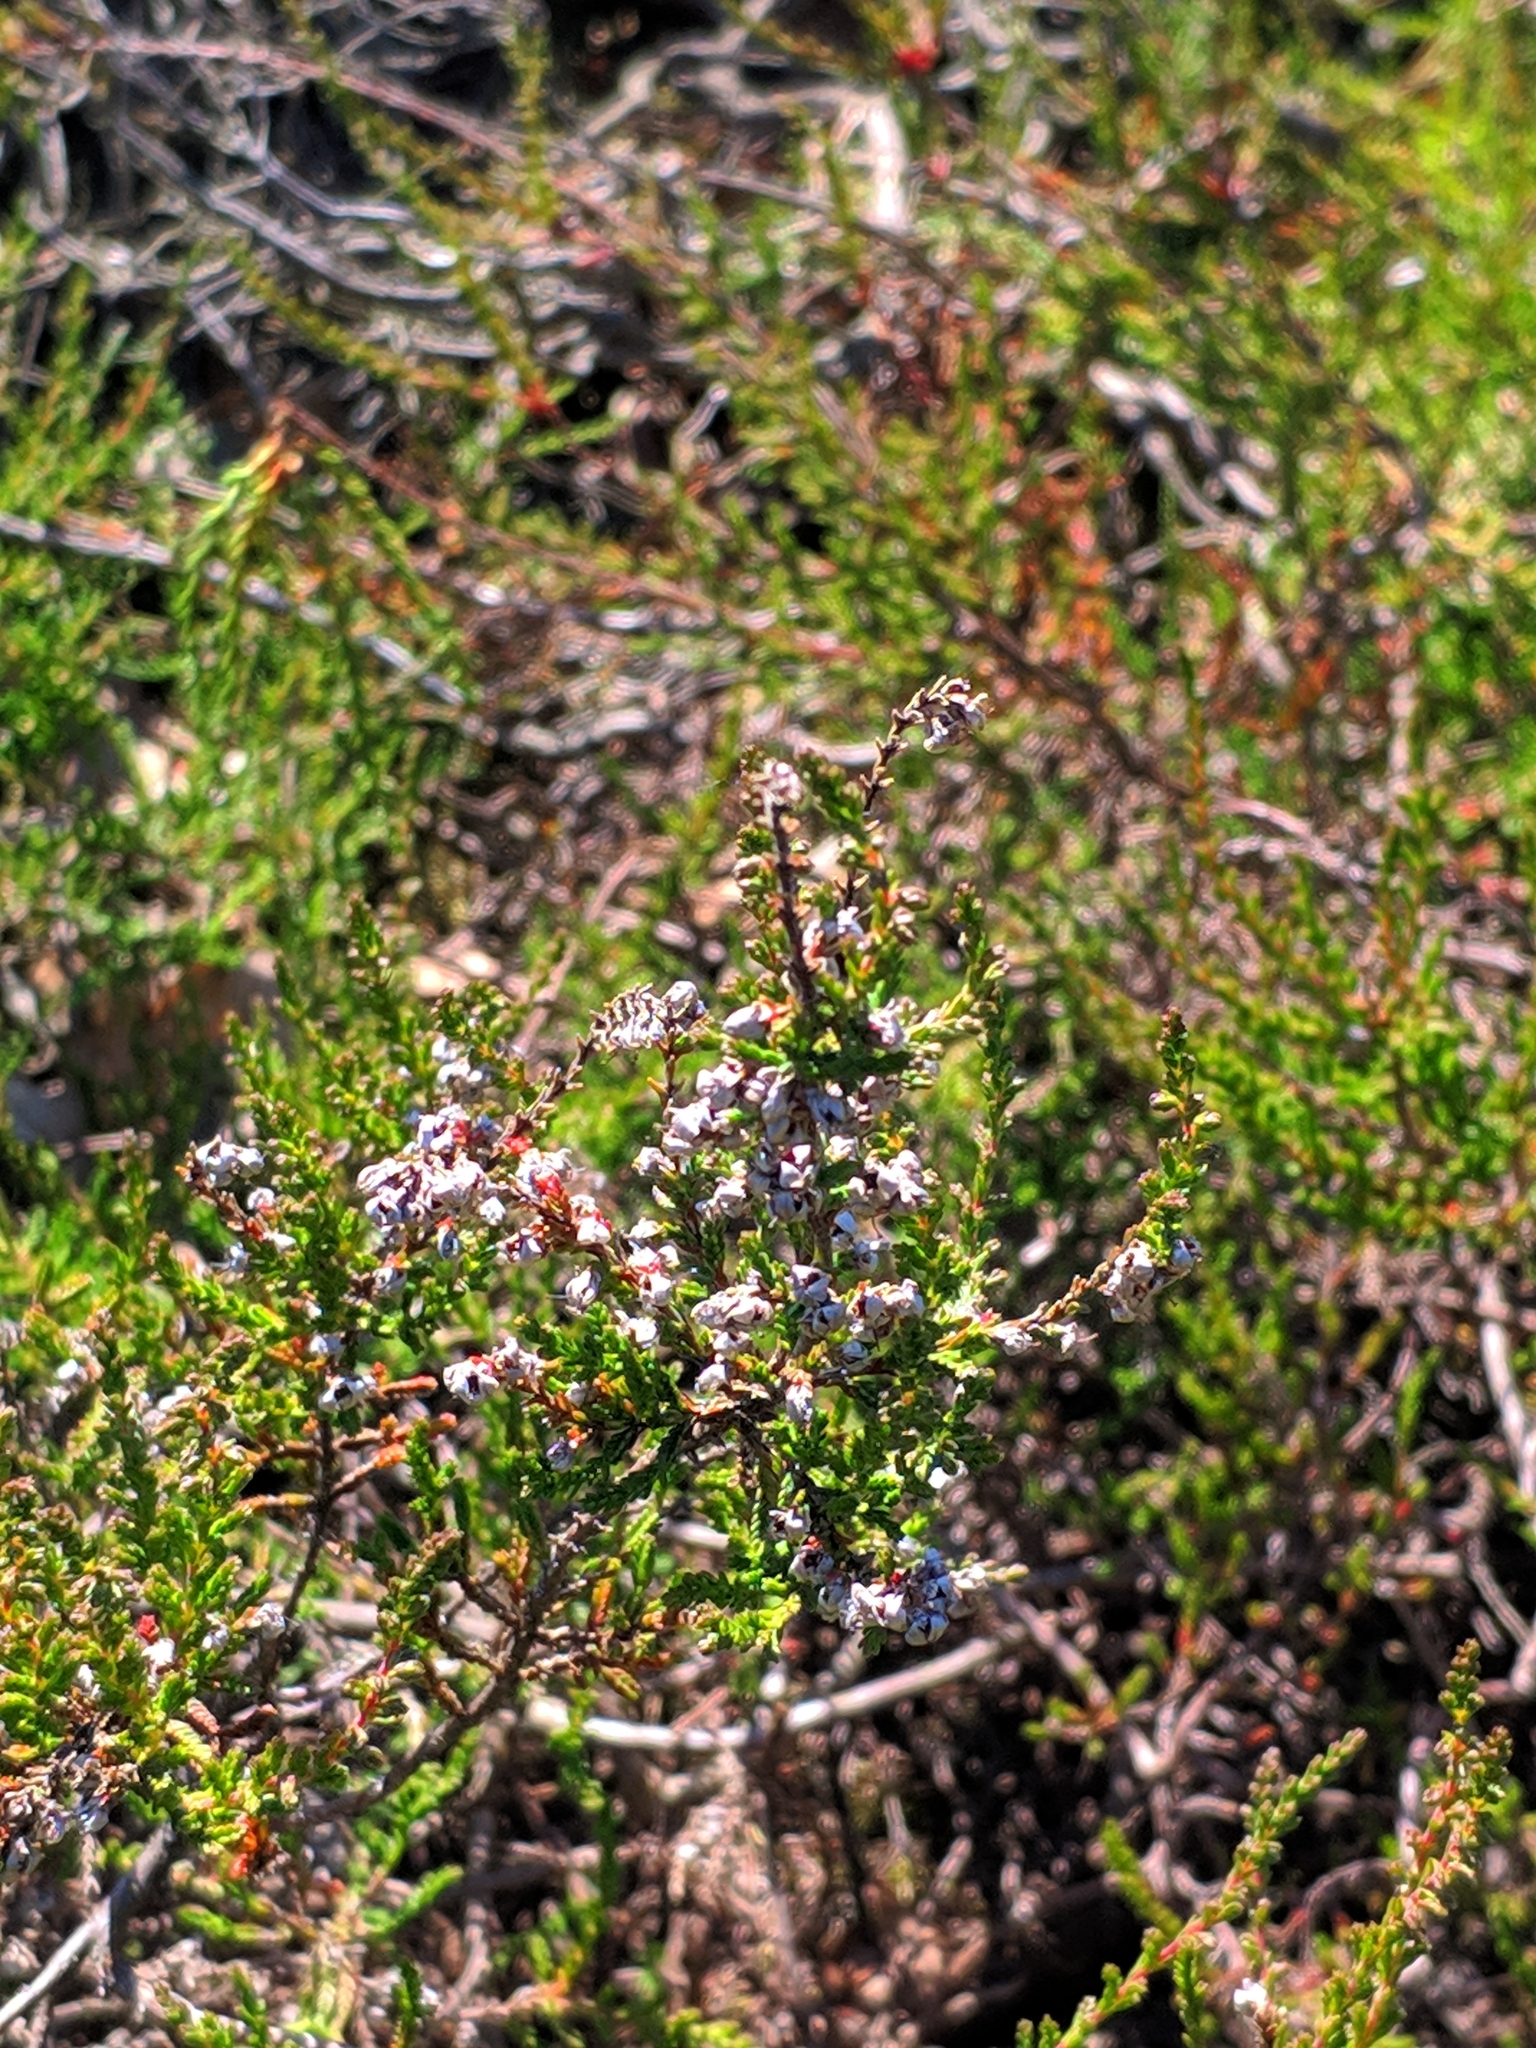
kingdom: Plantae
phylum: Tracheophyta
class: Magnoliopsida
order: Ericales
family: Ericaceae
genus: Calluna
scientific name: Calluna vulgaris
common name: Heather
